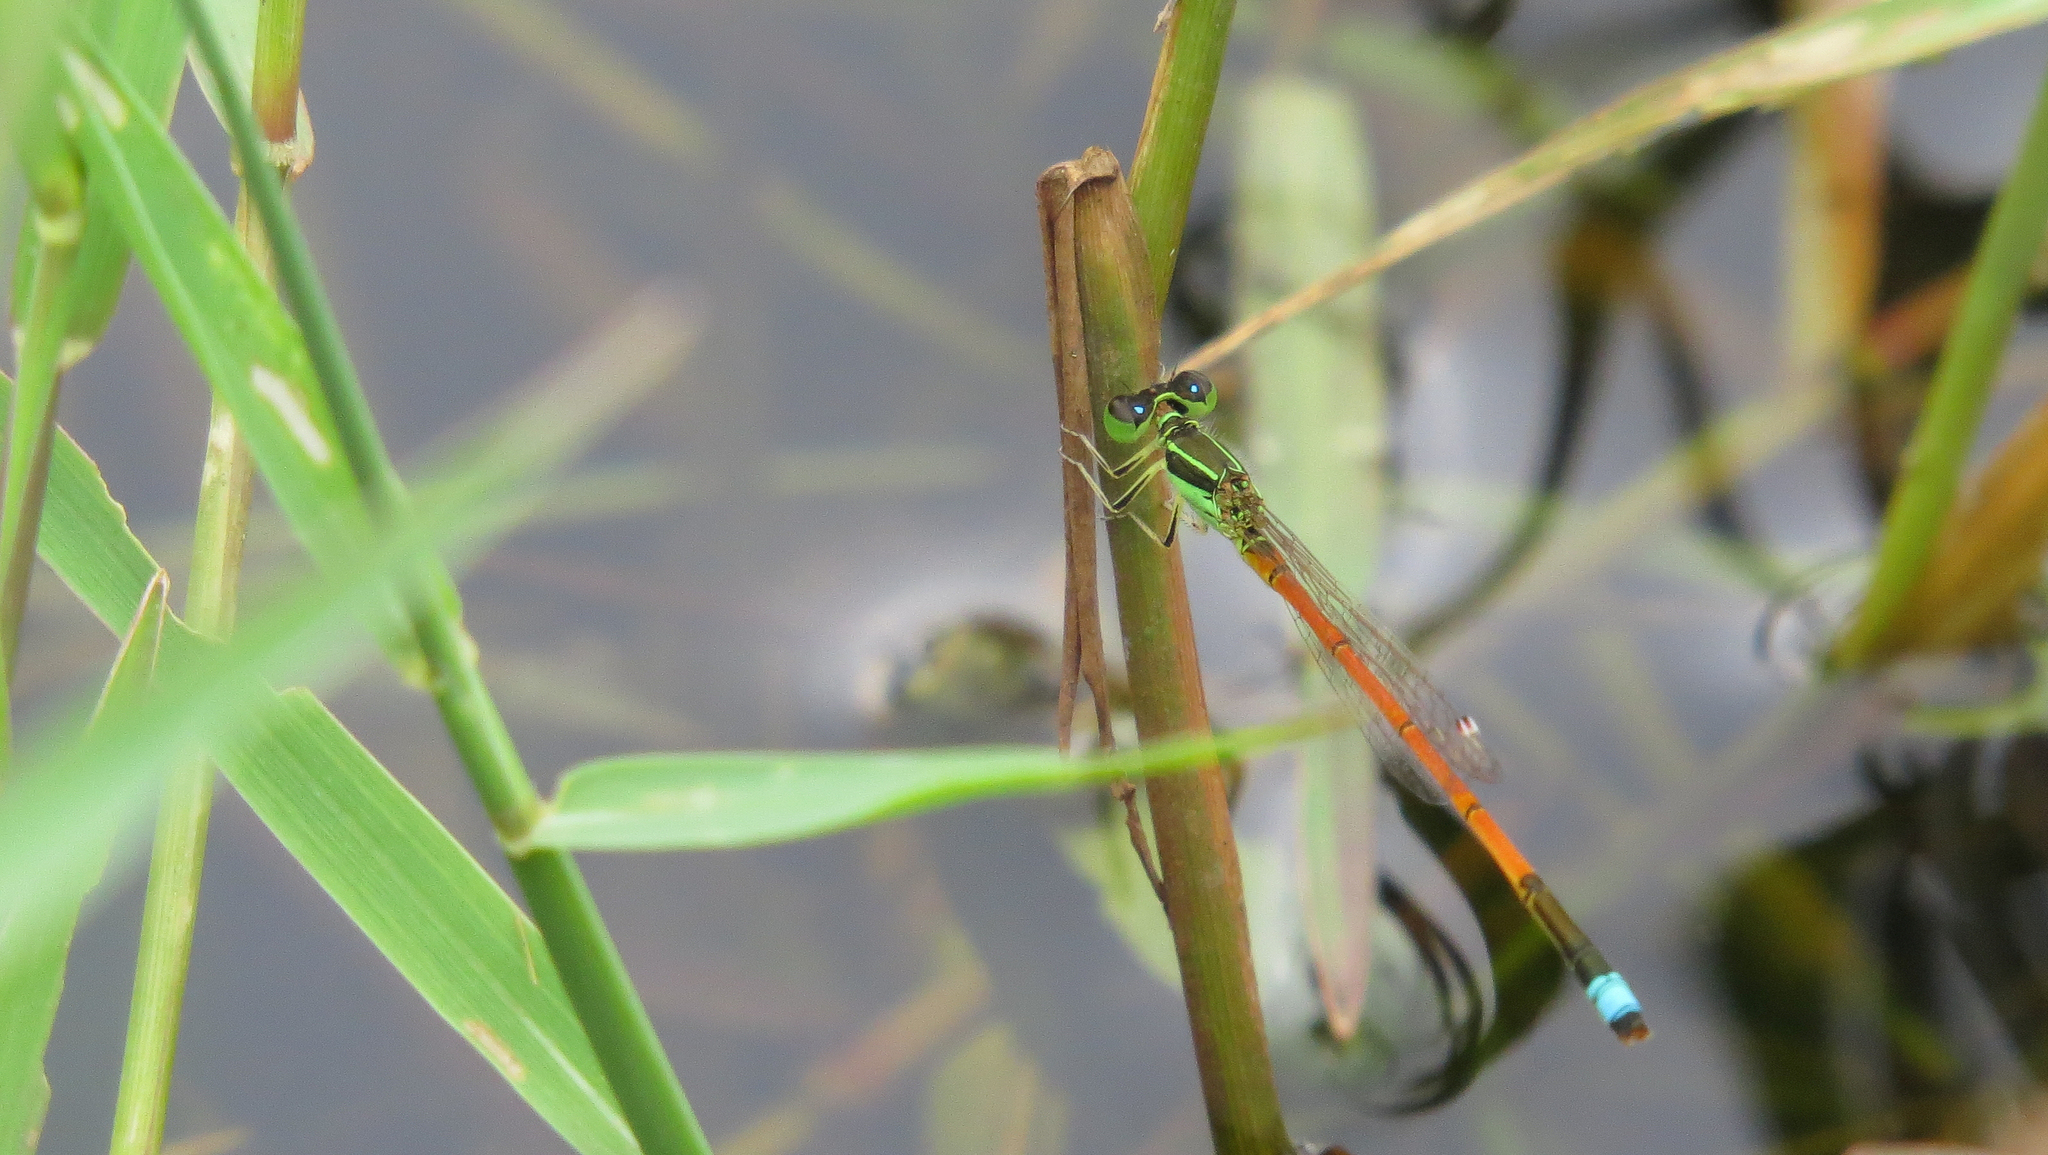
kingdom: Animalia
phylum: Arthropoda
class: Insecta
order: Odonata
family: Coenagrionidae
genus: Ischnura
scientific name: Ischnura aurora
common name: Gossamer damselfly
